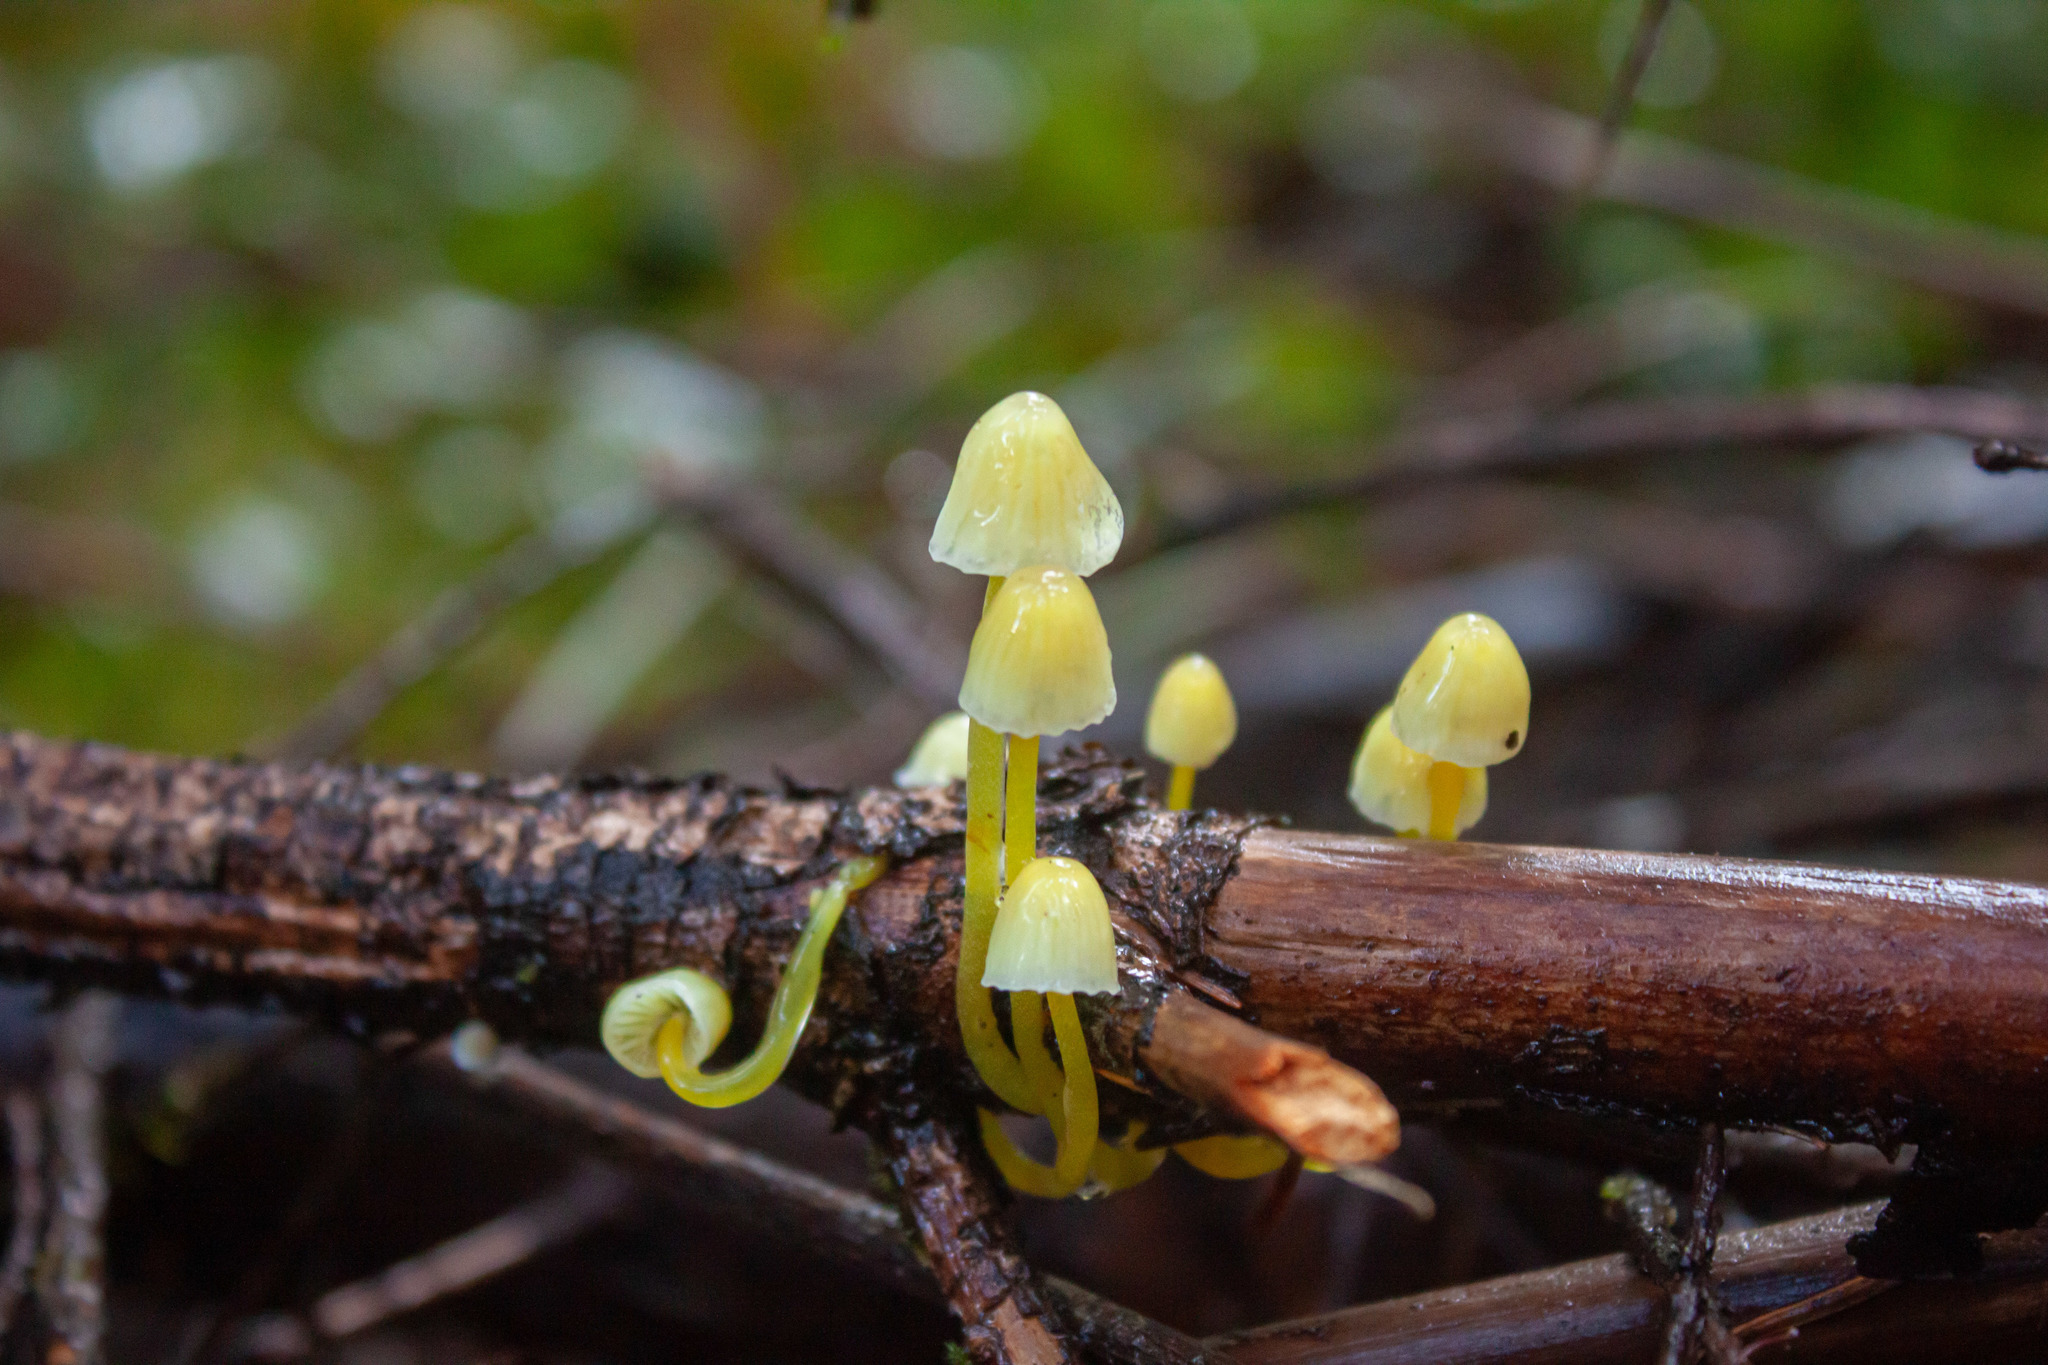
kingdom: Fungi
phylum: Basidiomycota
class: Agaricomycetes
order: Agaricales
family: Mycenaceae
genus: Mycena
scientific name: Mycena epipterygia
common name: Yellowleg bonnet
